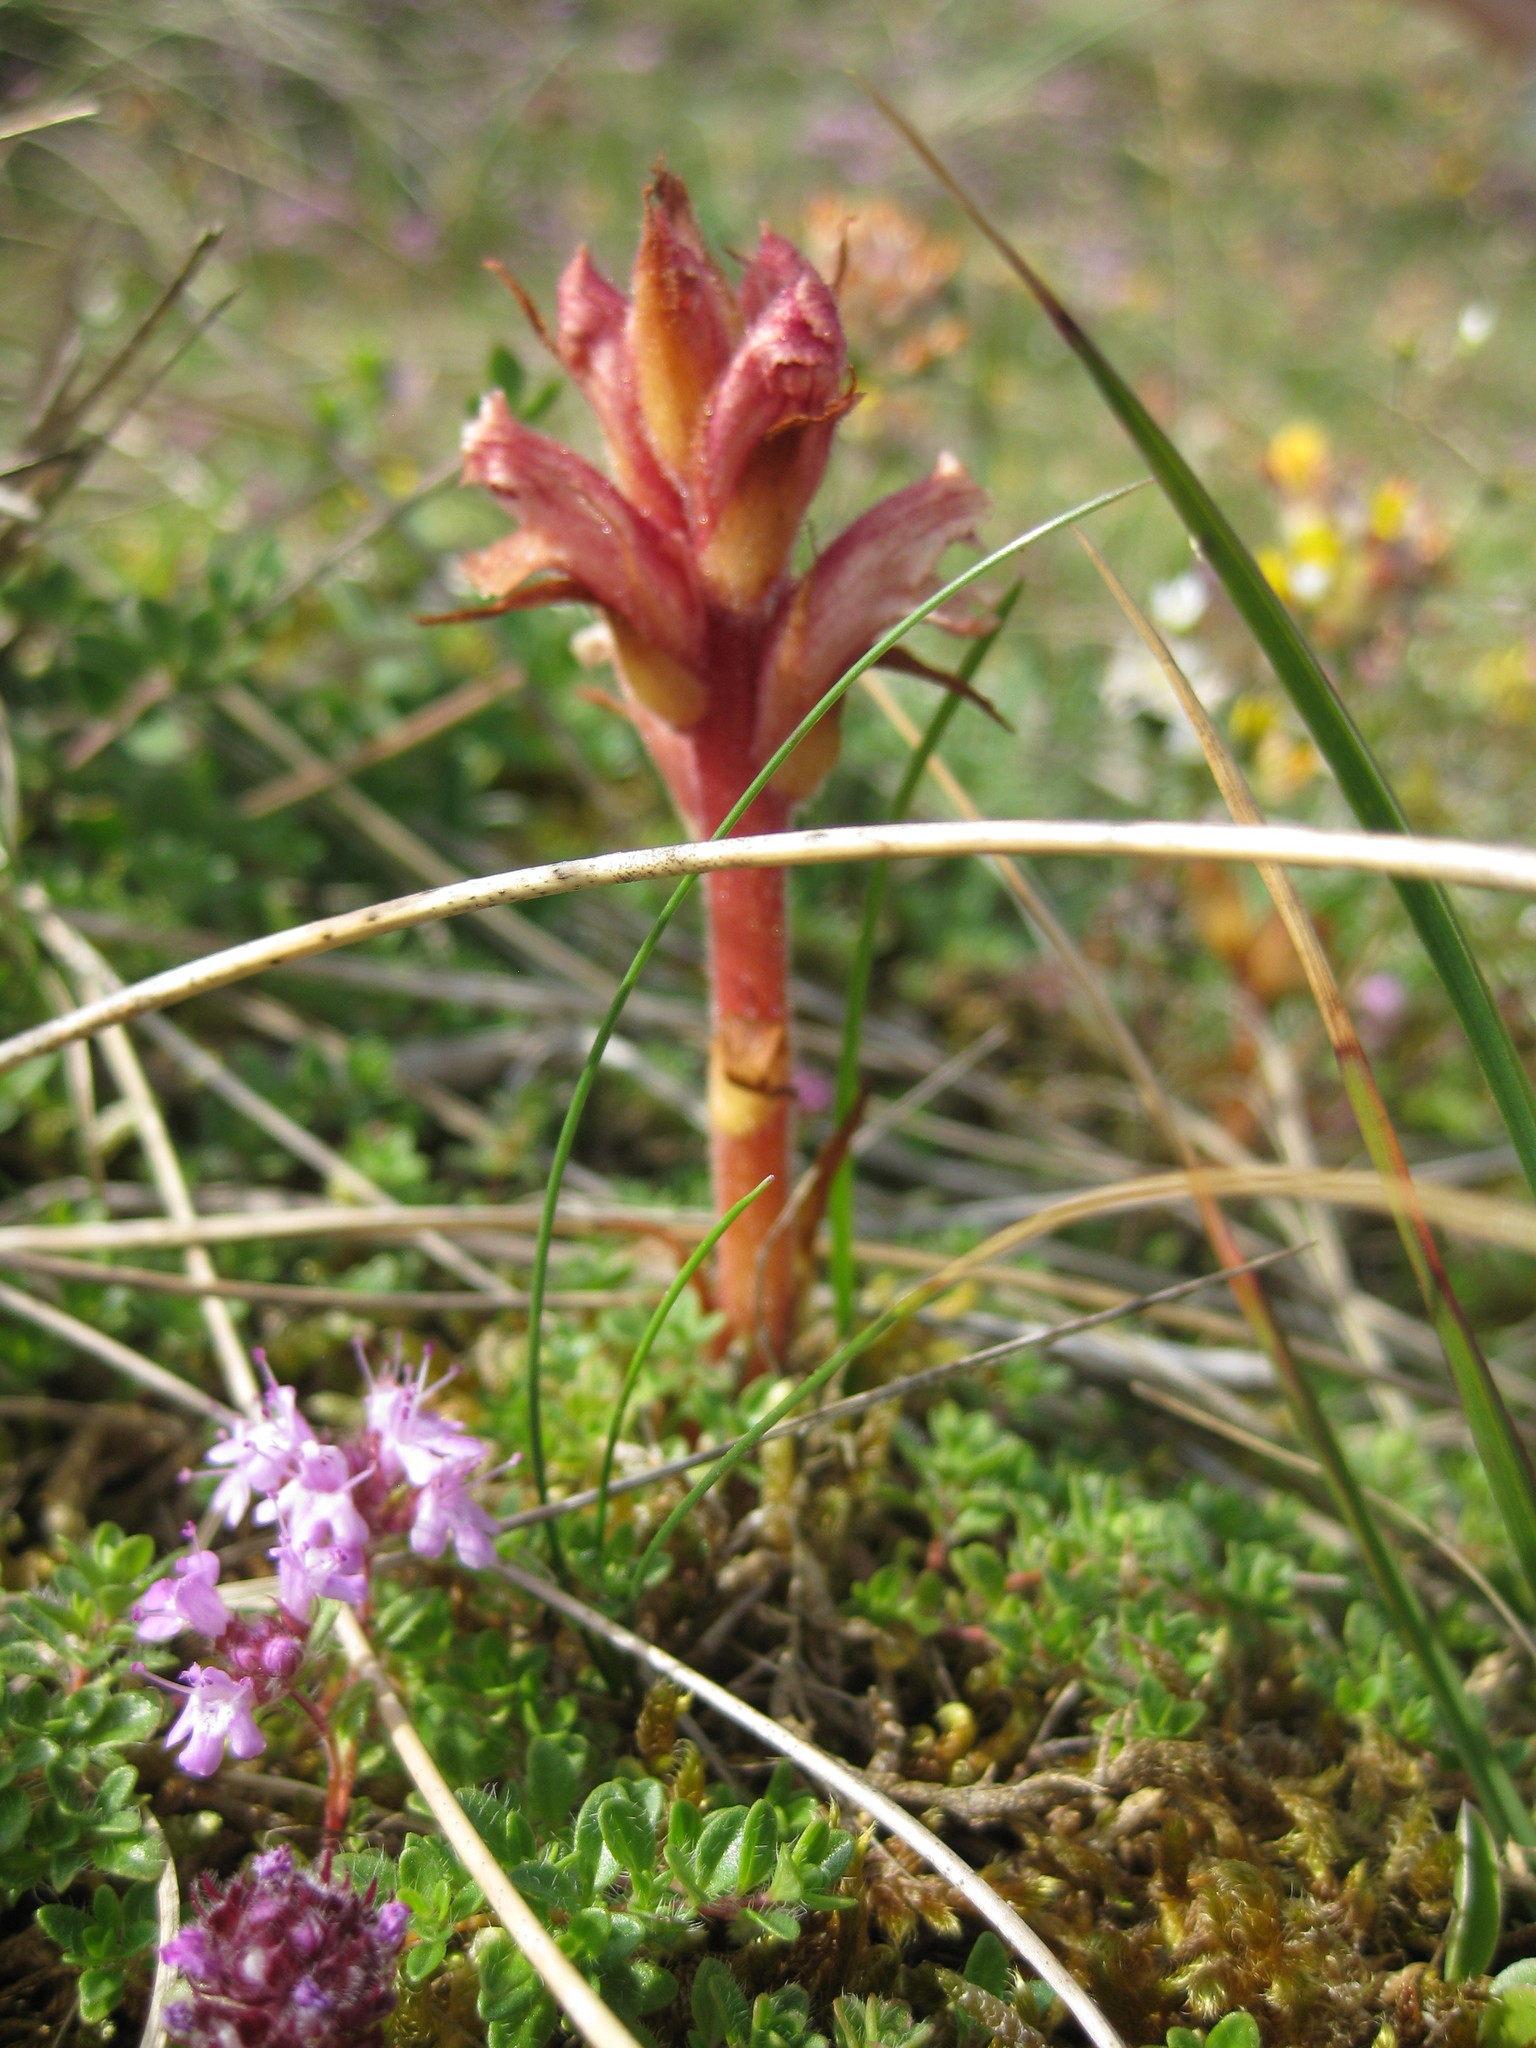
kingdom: Plantae
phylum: Tracheophyta
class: Magnoliopsida
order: Lamiales
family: Orobanchaceae
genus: Orobanche
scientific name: Orobanche alba
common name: Thyme broomrape
